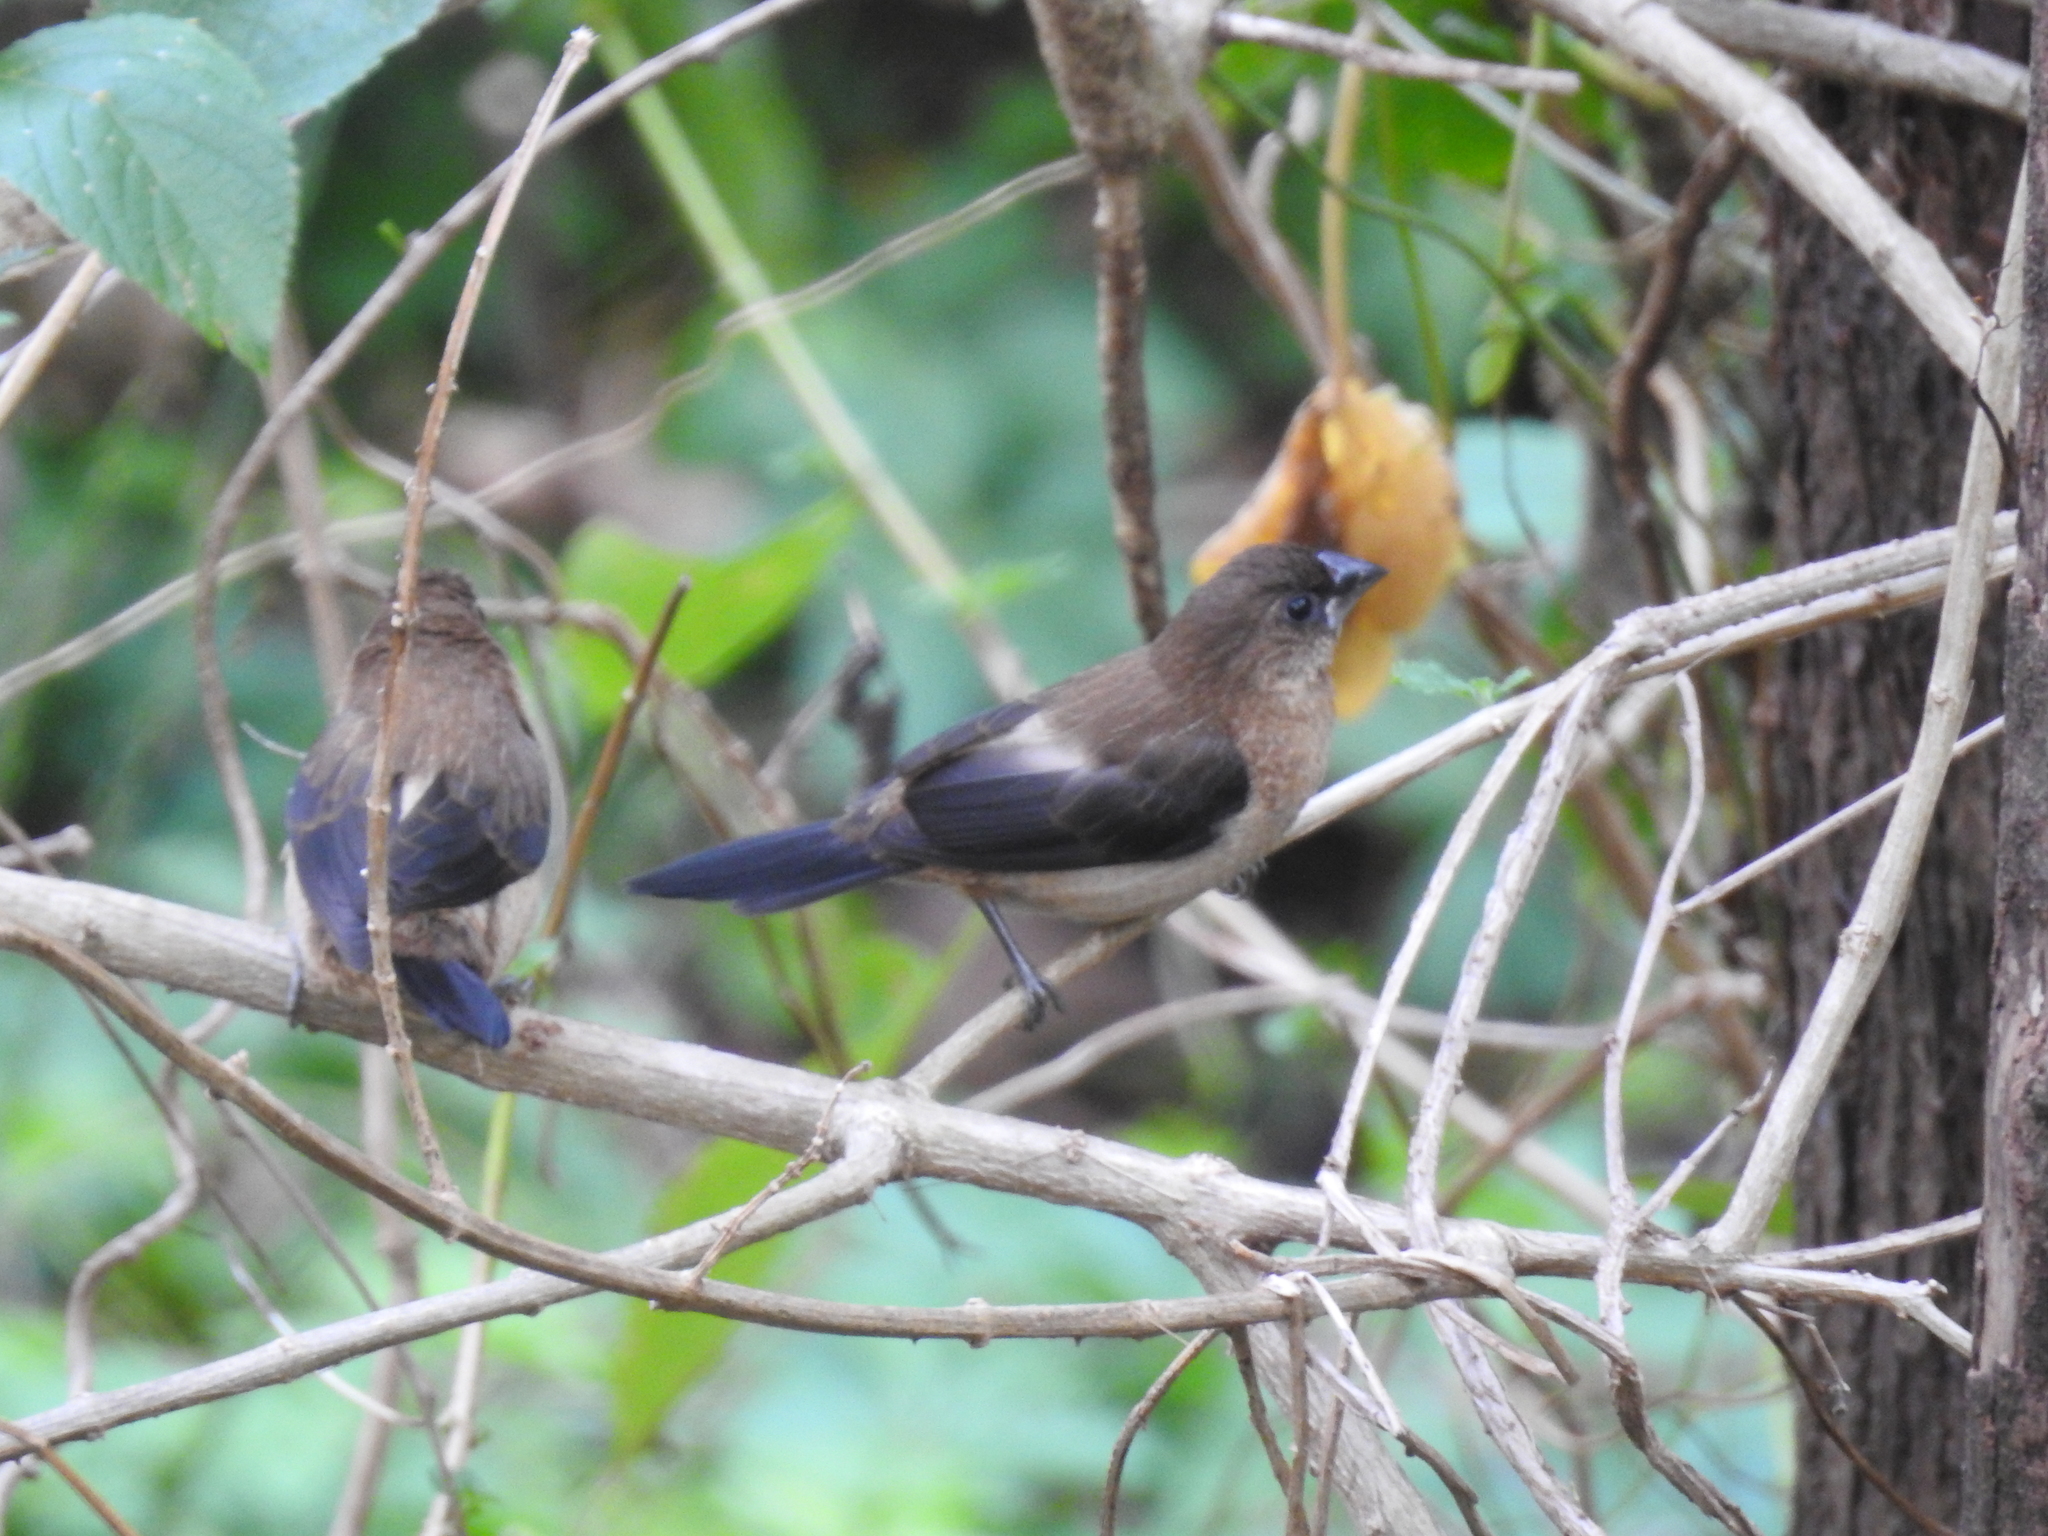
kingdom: Animalia
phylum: Chordata
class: Aves
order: Passeriformes
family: Estrildidae
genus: Lonchura
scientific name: Lonchura striata
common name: White-rumped munia
